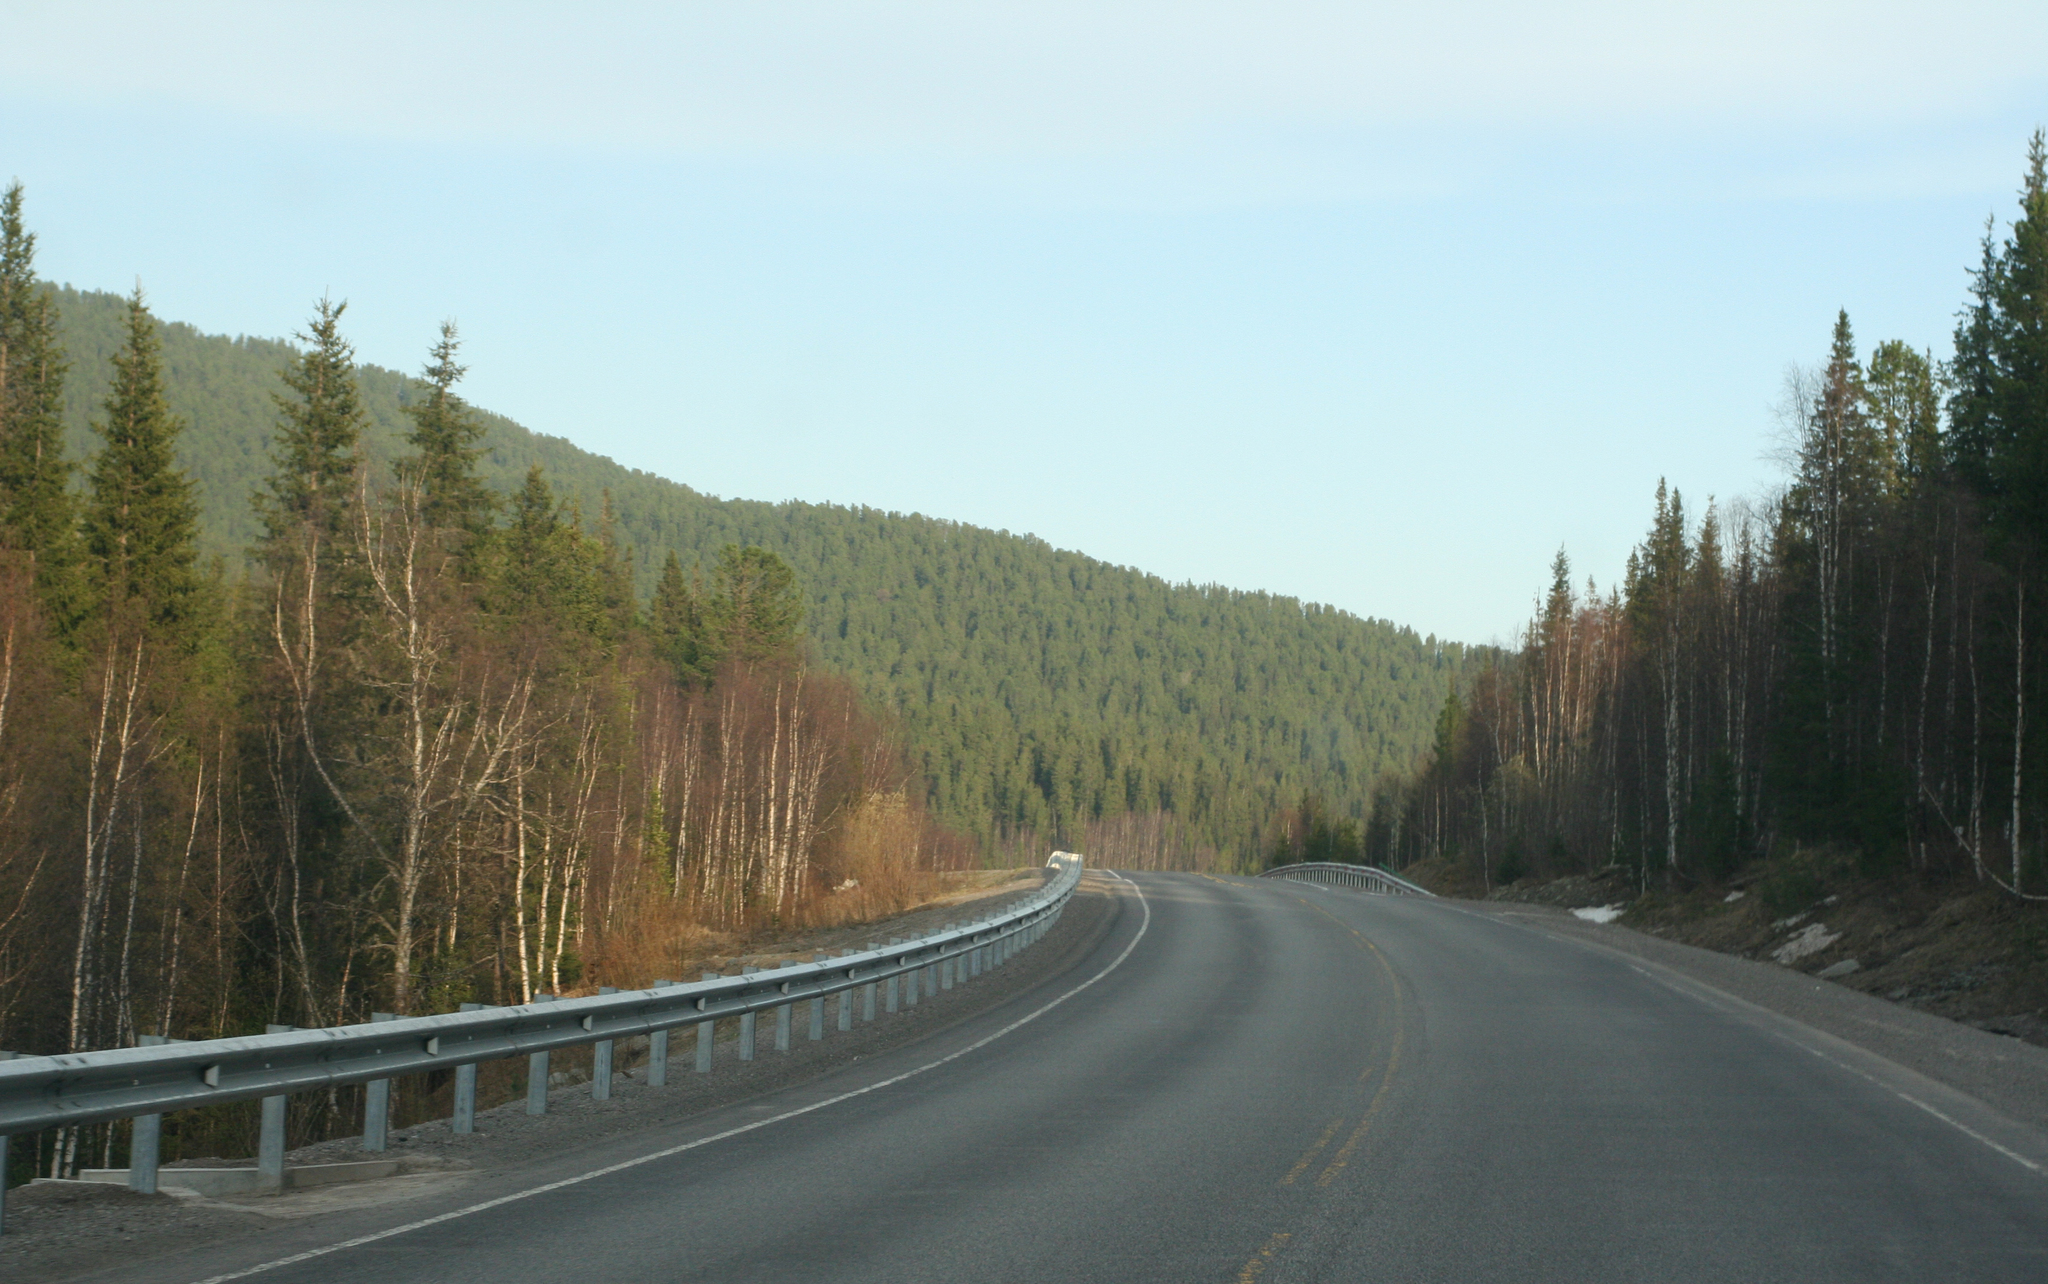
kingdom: Plantae
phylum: Tracheophyta
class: Pinopsida
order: Pinales
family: Pinaceae
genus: Picea
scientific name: Picea obovata
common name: Siberian spruce
